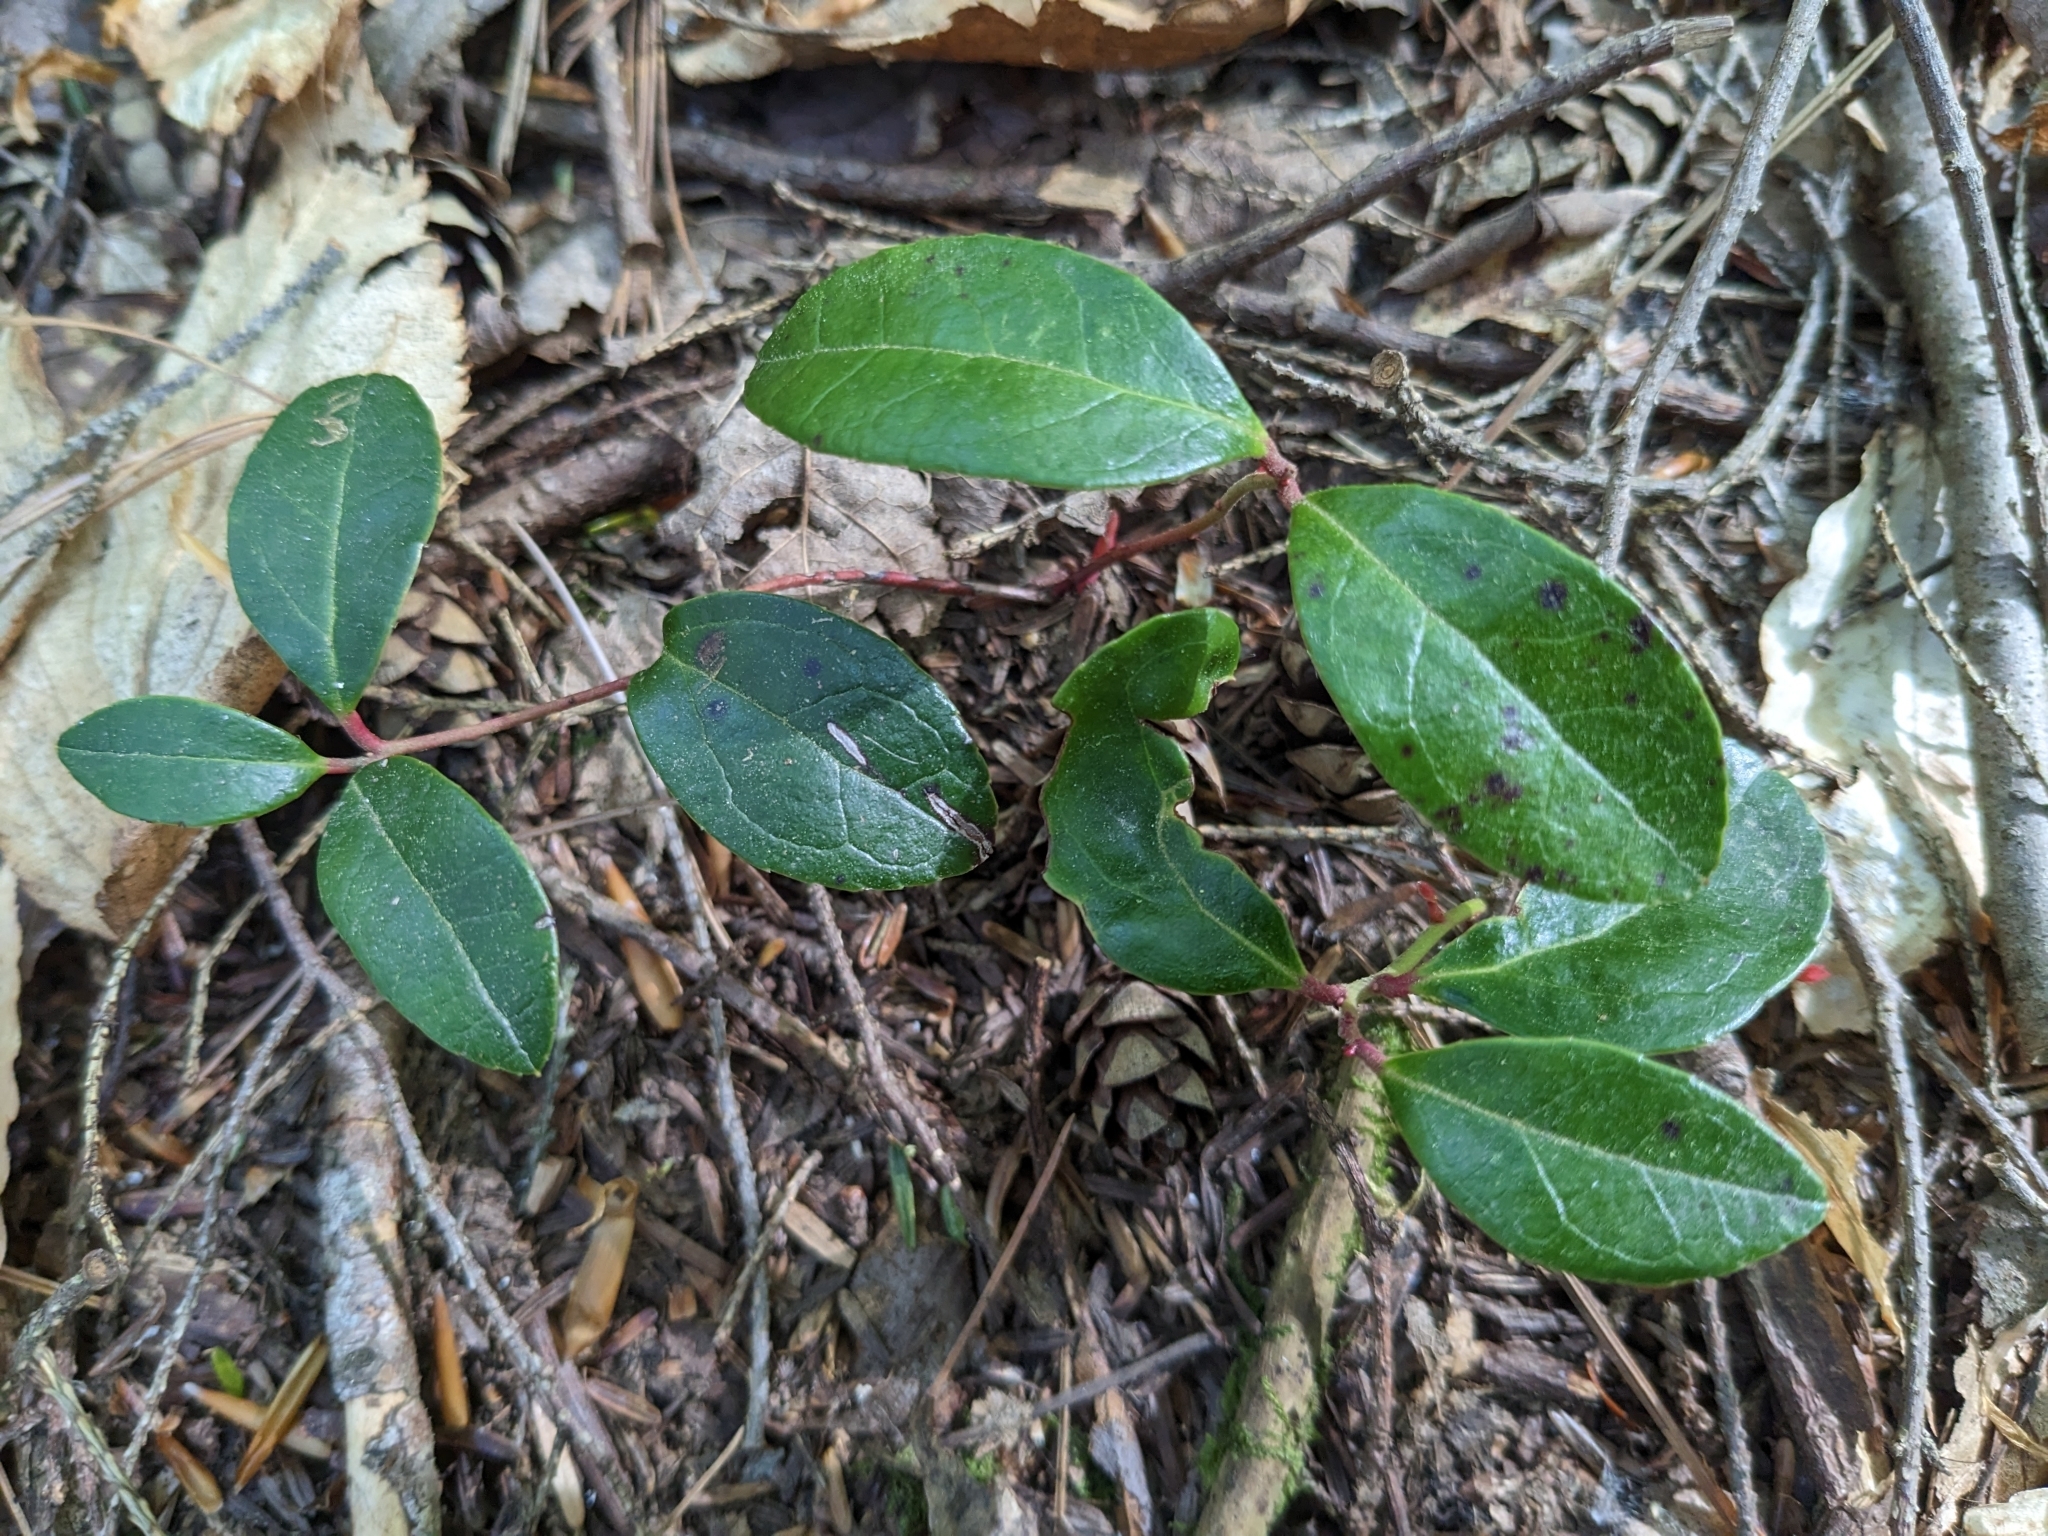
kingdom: Plantae
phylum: Tracheophyta
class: Magnoliopsida
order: Ericales
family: Ericaceae
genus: Gaultheria
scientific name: Gaultheria procumbens
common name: Checkerberry
